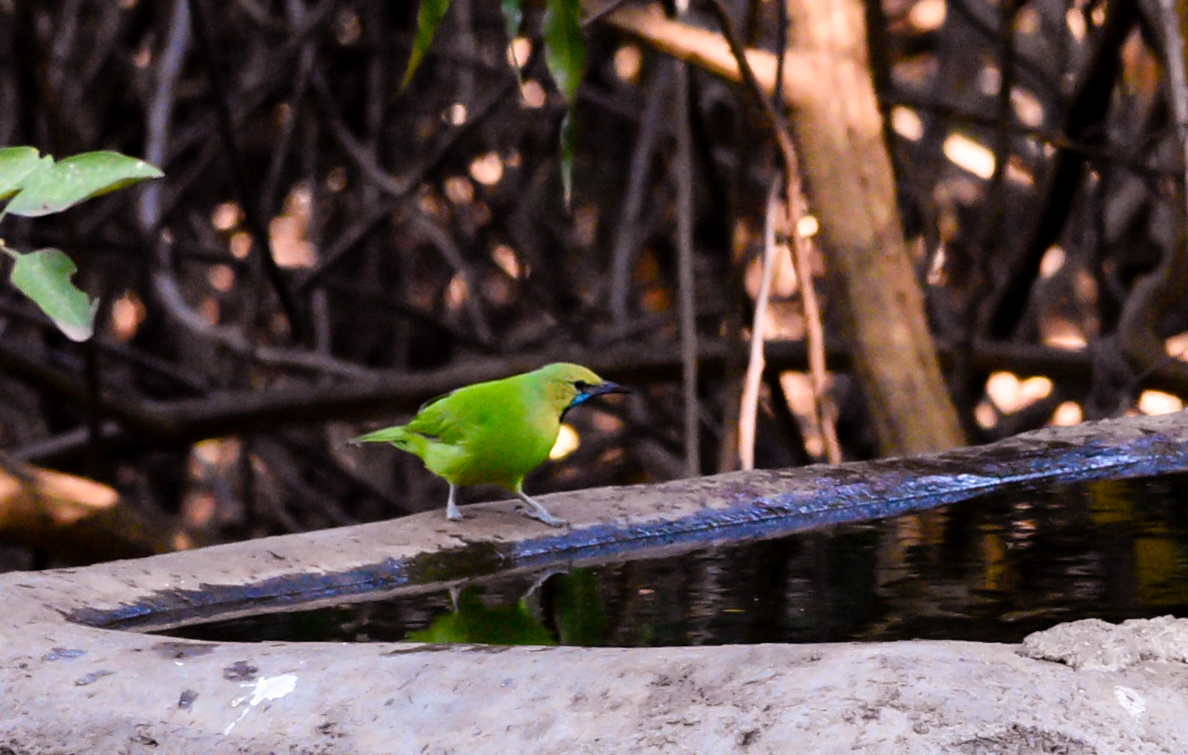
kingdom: Animalia
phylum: Chordata
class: Aves
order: Passeriformes
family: Chloropseidae
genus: Chloropsis
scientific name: Chloropsis jerdoni
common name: Jerdon's leafbird
